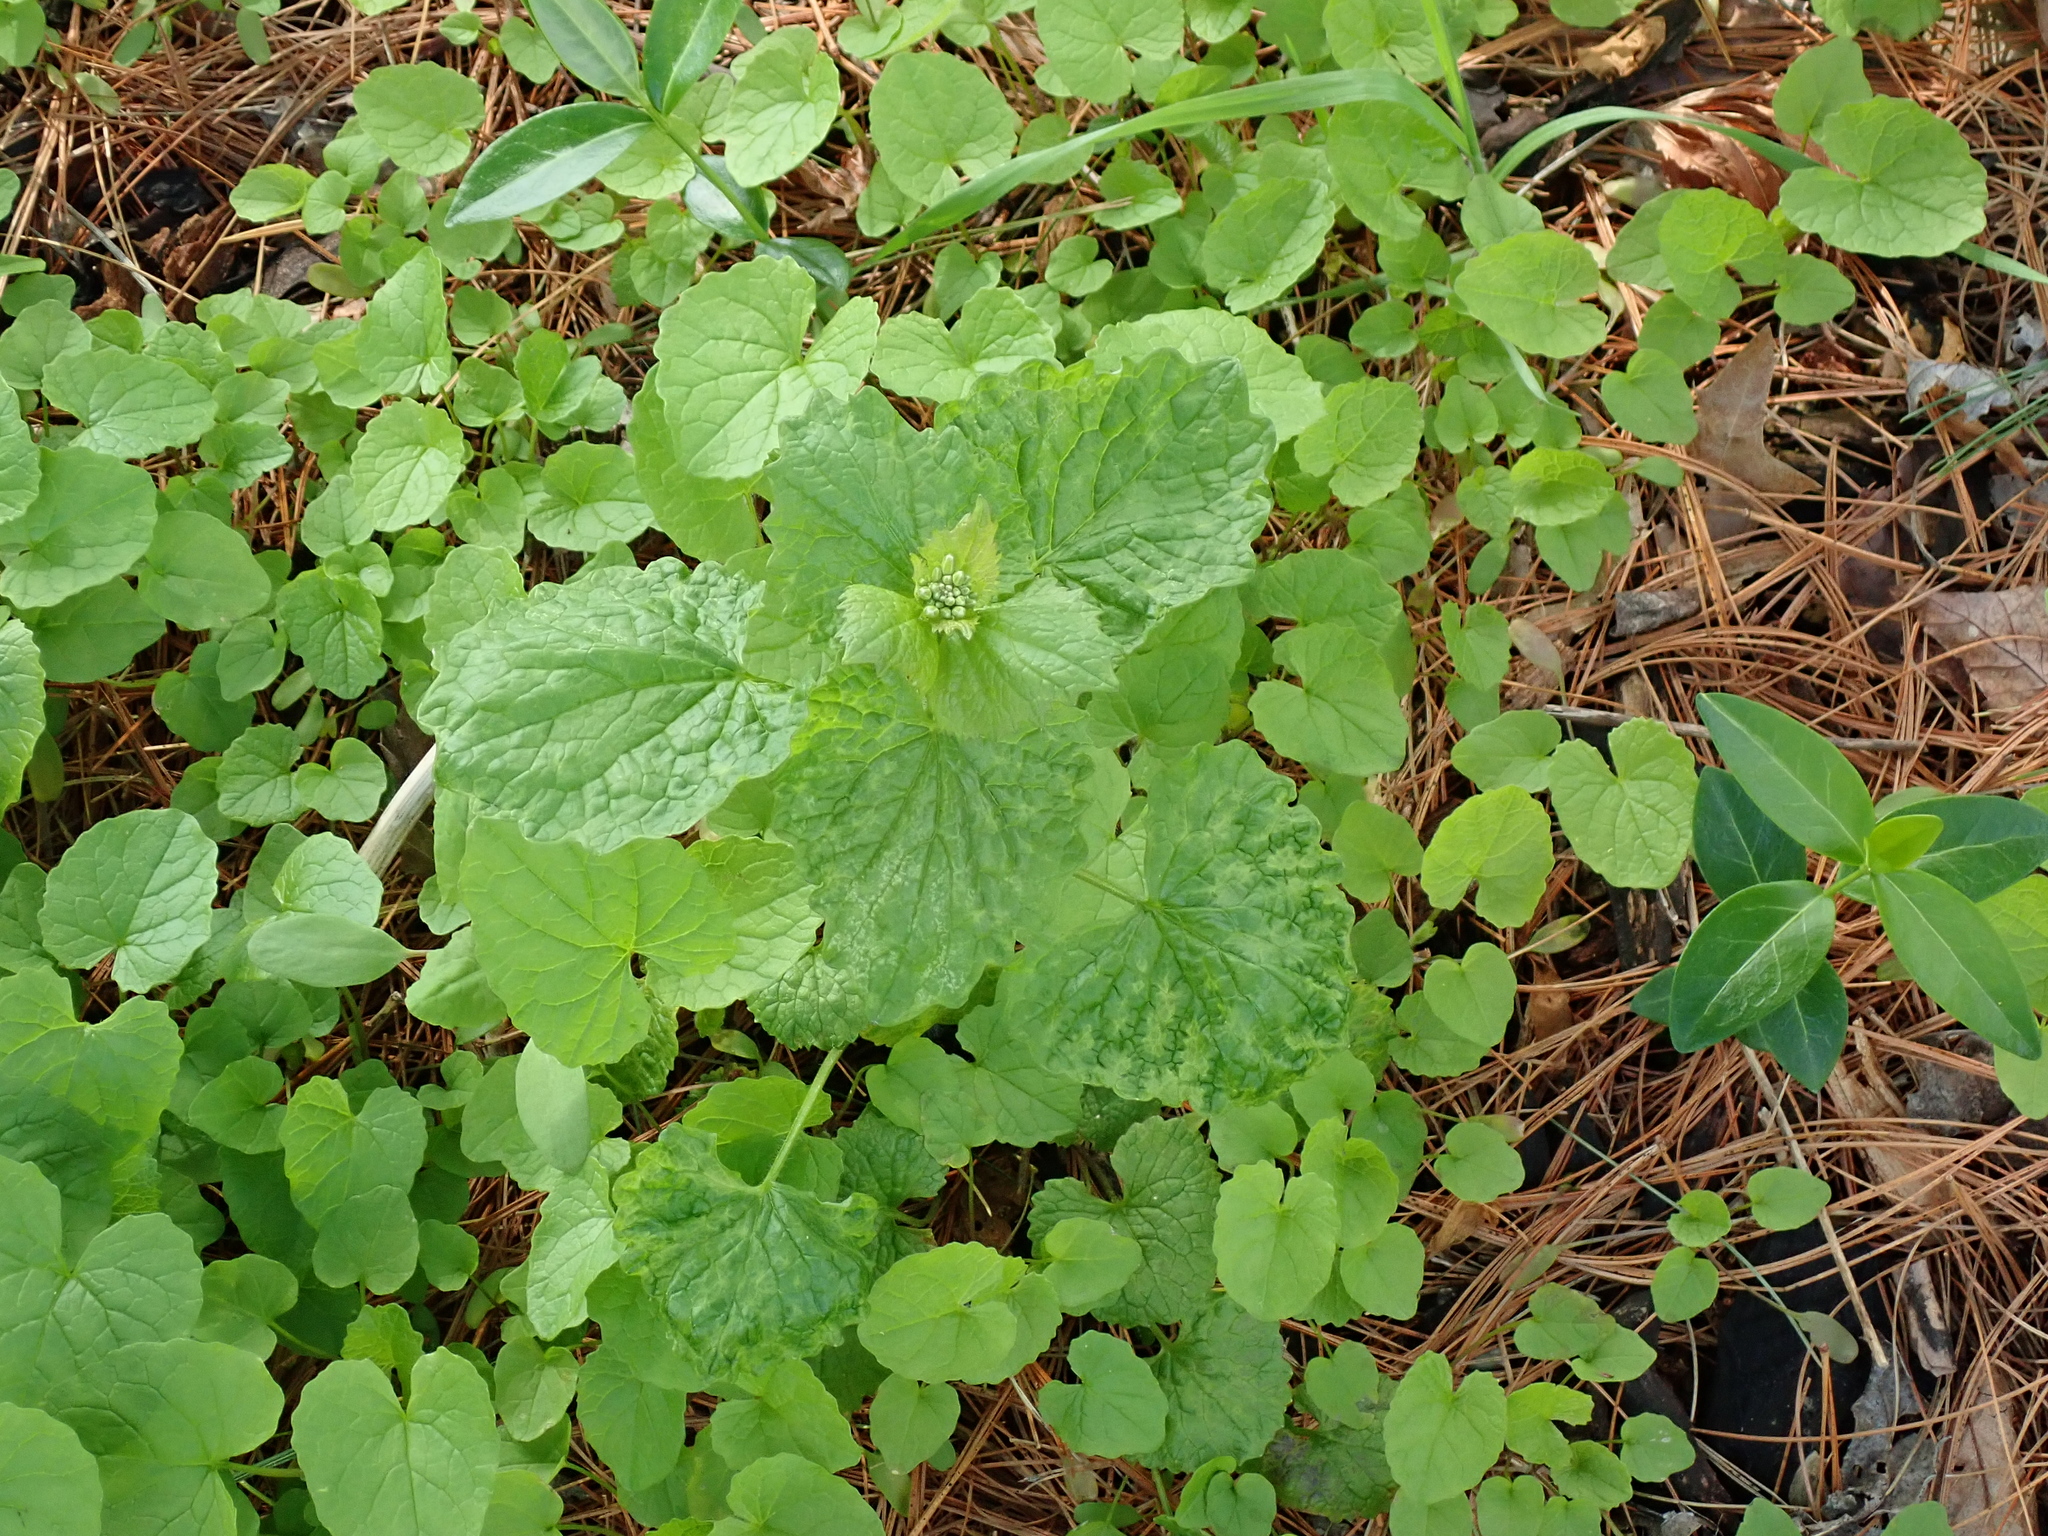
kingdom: Viruses
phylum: Kitrinoviricota
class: Tolucaviricetes
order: Tolivirales
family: Tombusviridae
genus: Betacarmovirus
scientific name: Betacarmovirus brassicae
